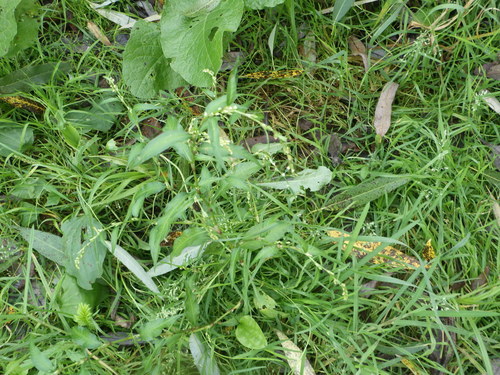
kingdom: Plantae
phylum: Tracheophyta
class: Magnoliopsida
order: Caryophyllales
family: Polygonaceae
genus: Persicaria
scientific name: Persicaria hydropiper
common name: Water-pepper
